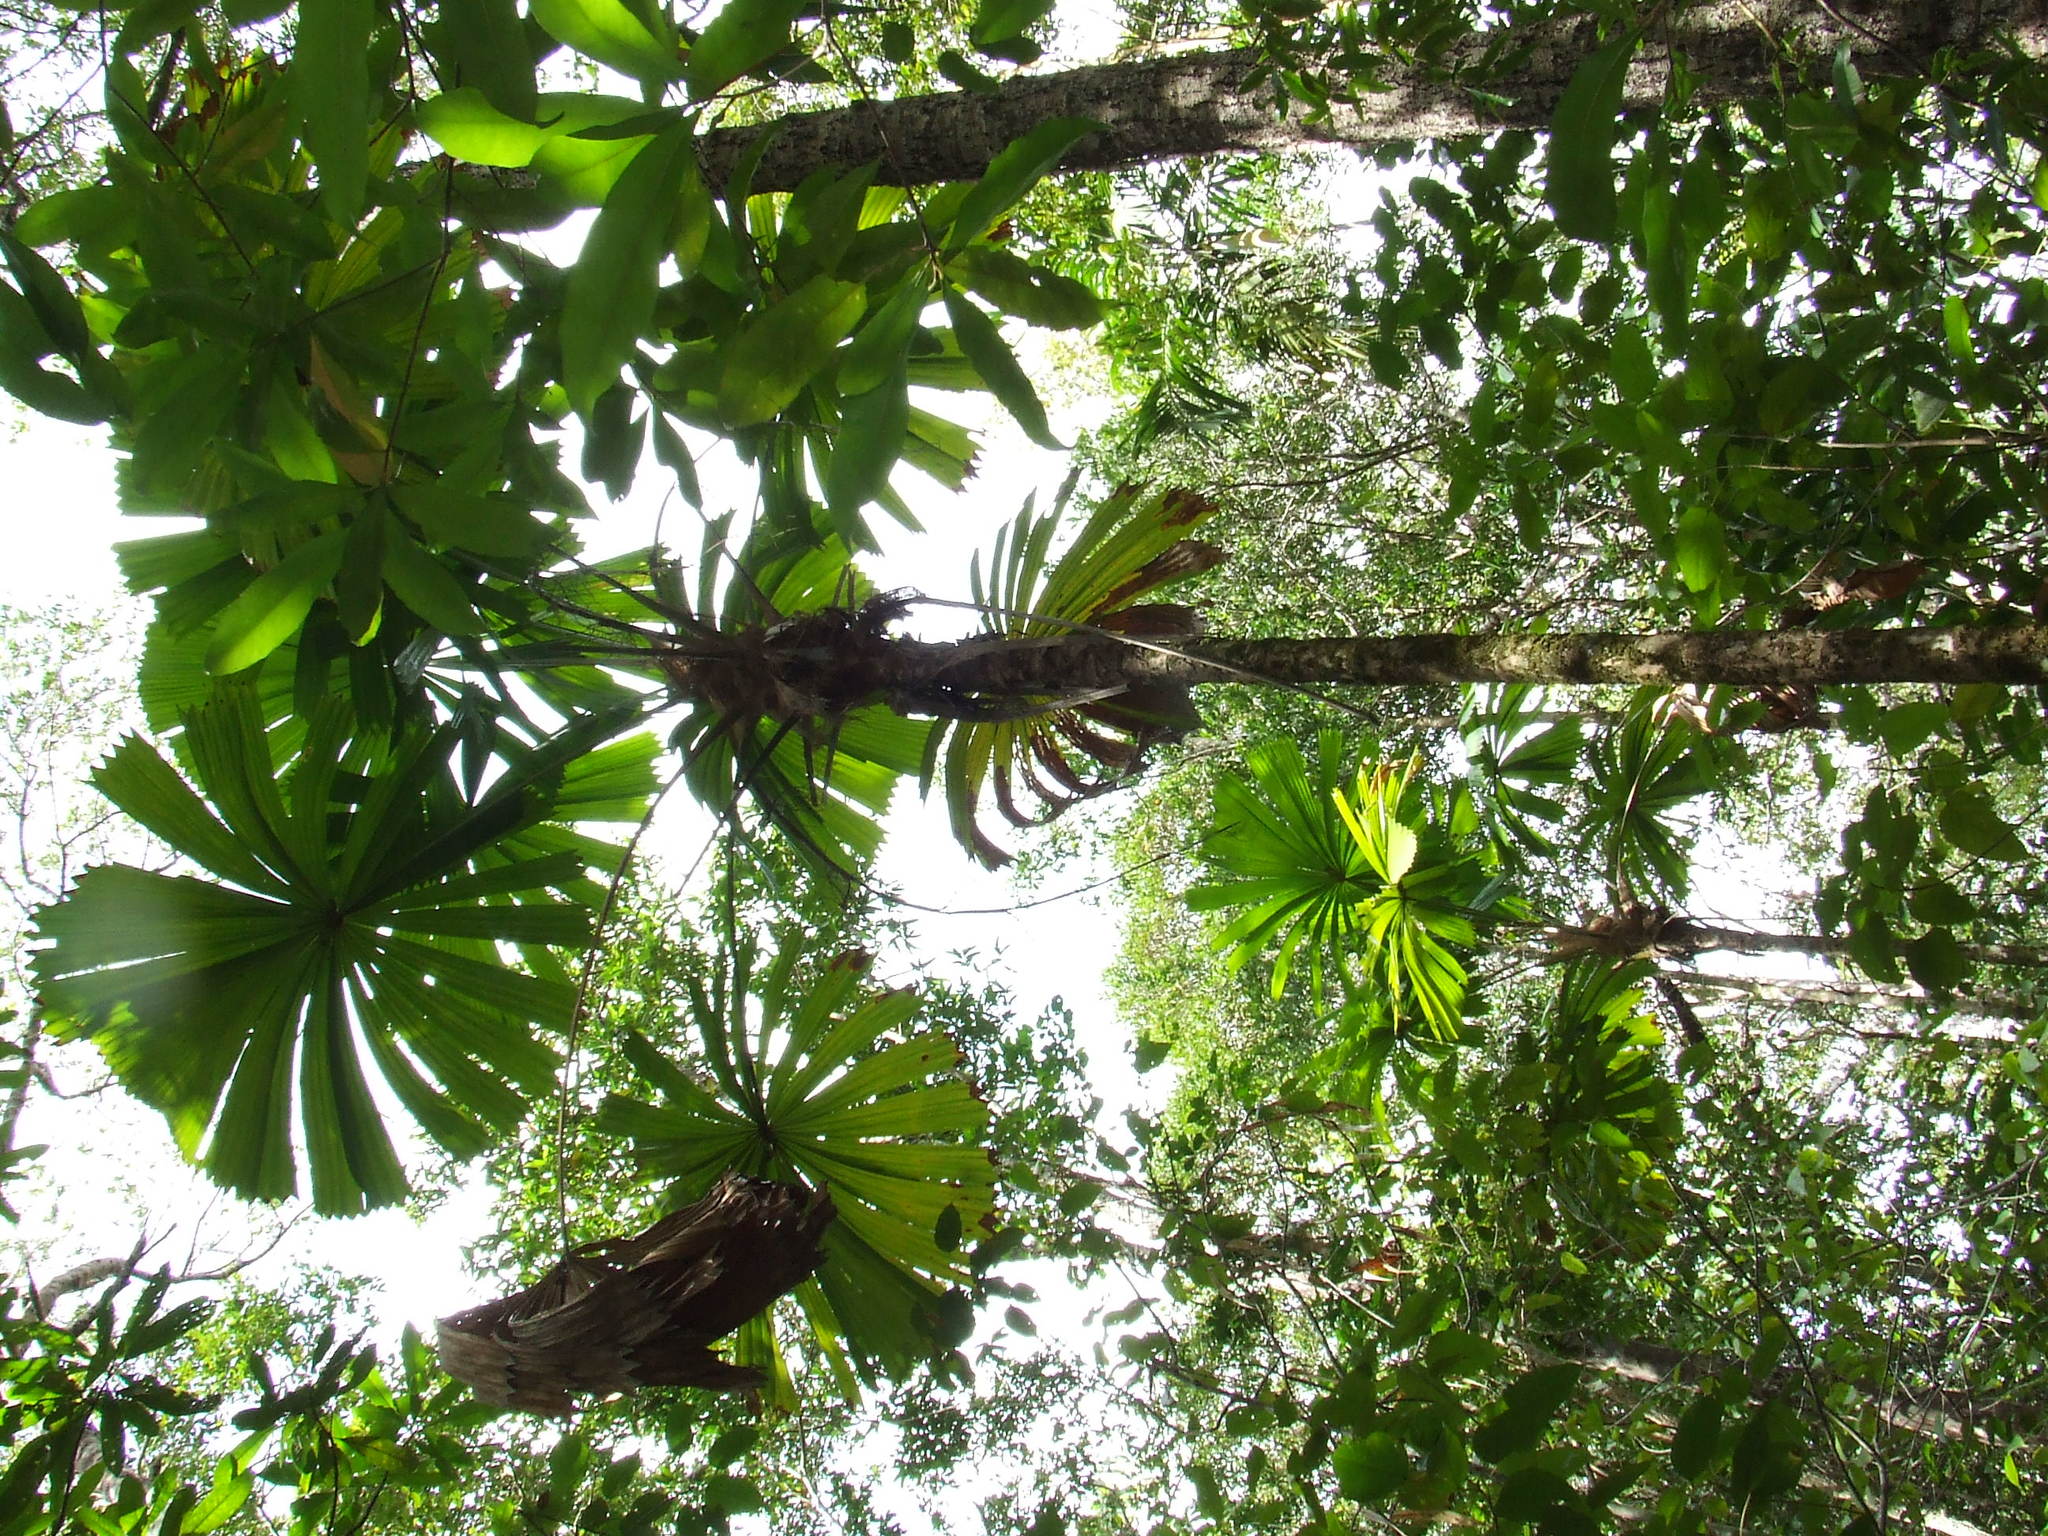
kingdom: Plantae
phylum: Tracheophyta
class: Liliopsida
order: Arecales
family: Arecaceae
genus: Licuala
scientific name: Licuala ramsayi
